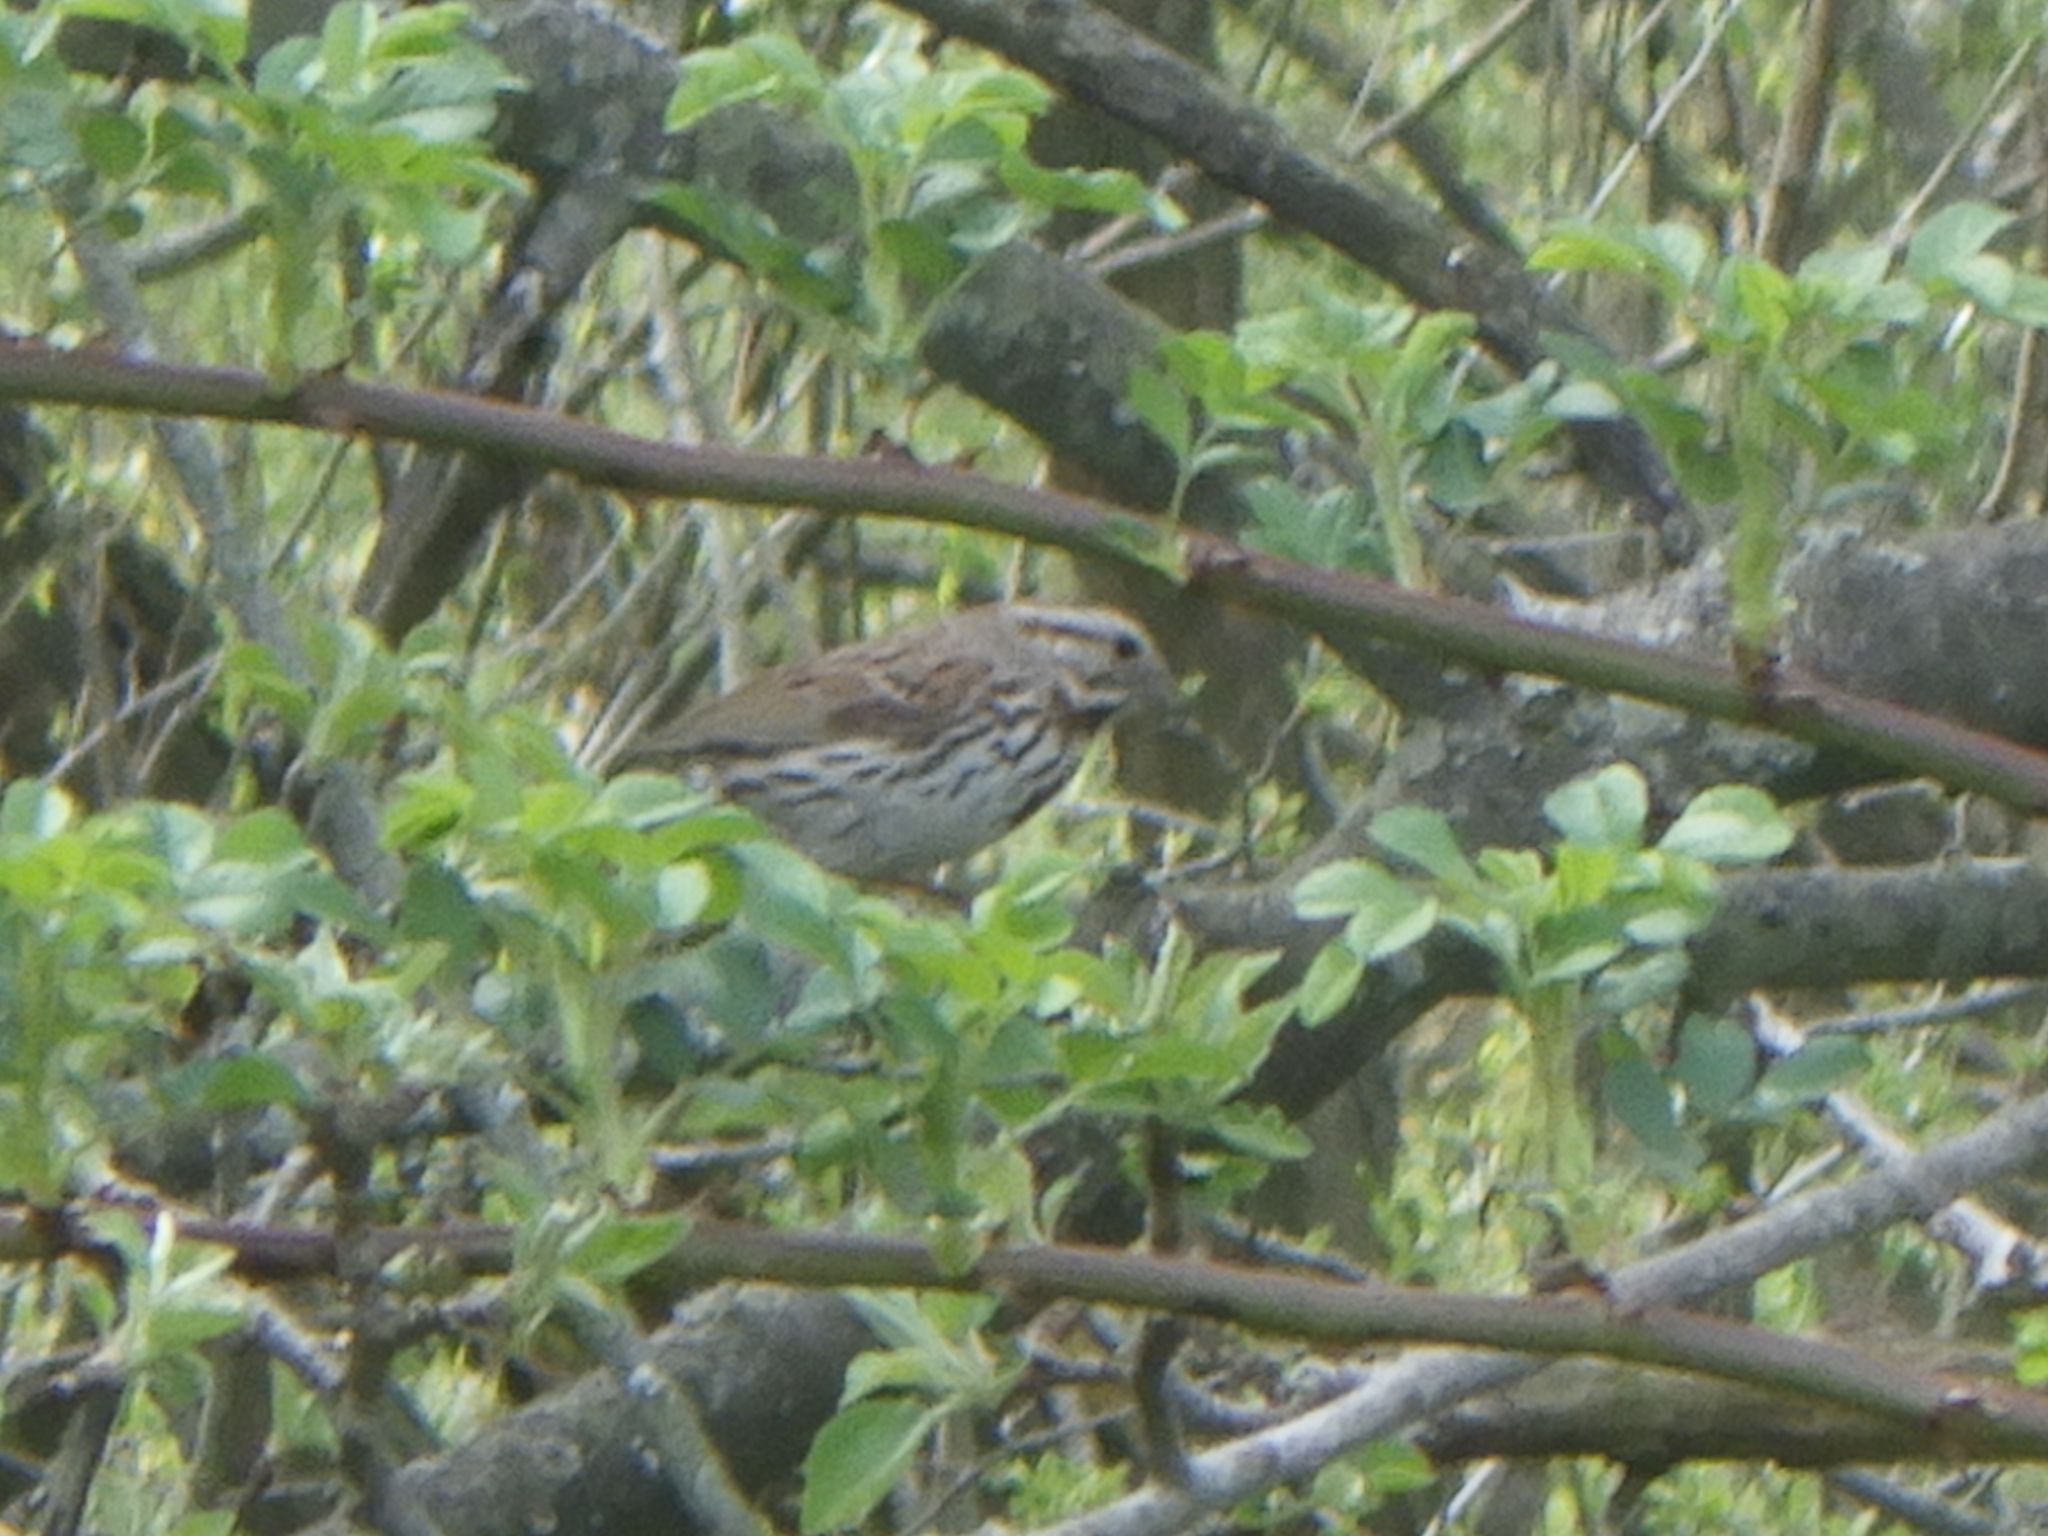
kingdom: Animalia
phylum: Chordata
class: Aves
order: Passeriformes
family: Passerellidae
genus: Melospiza
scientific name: Melospiza melodia
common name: Song sparrow
